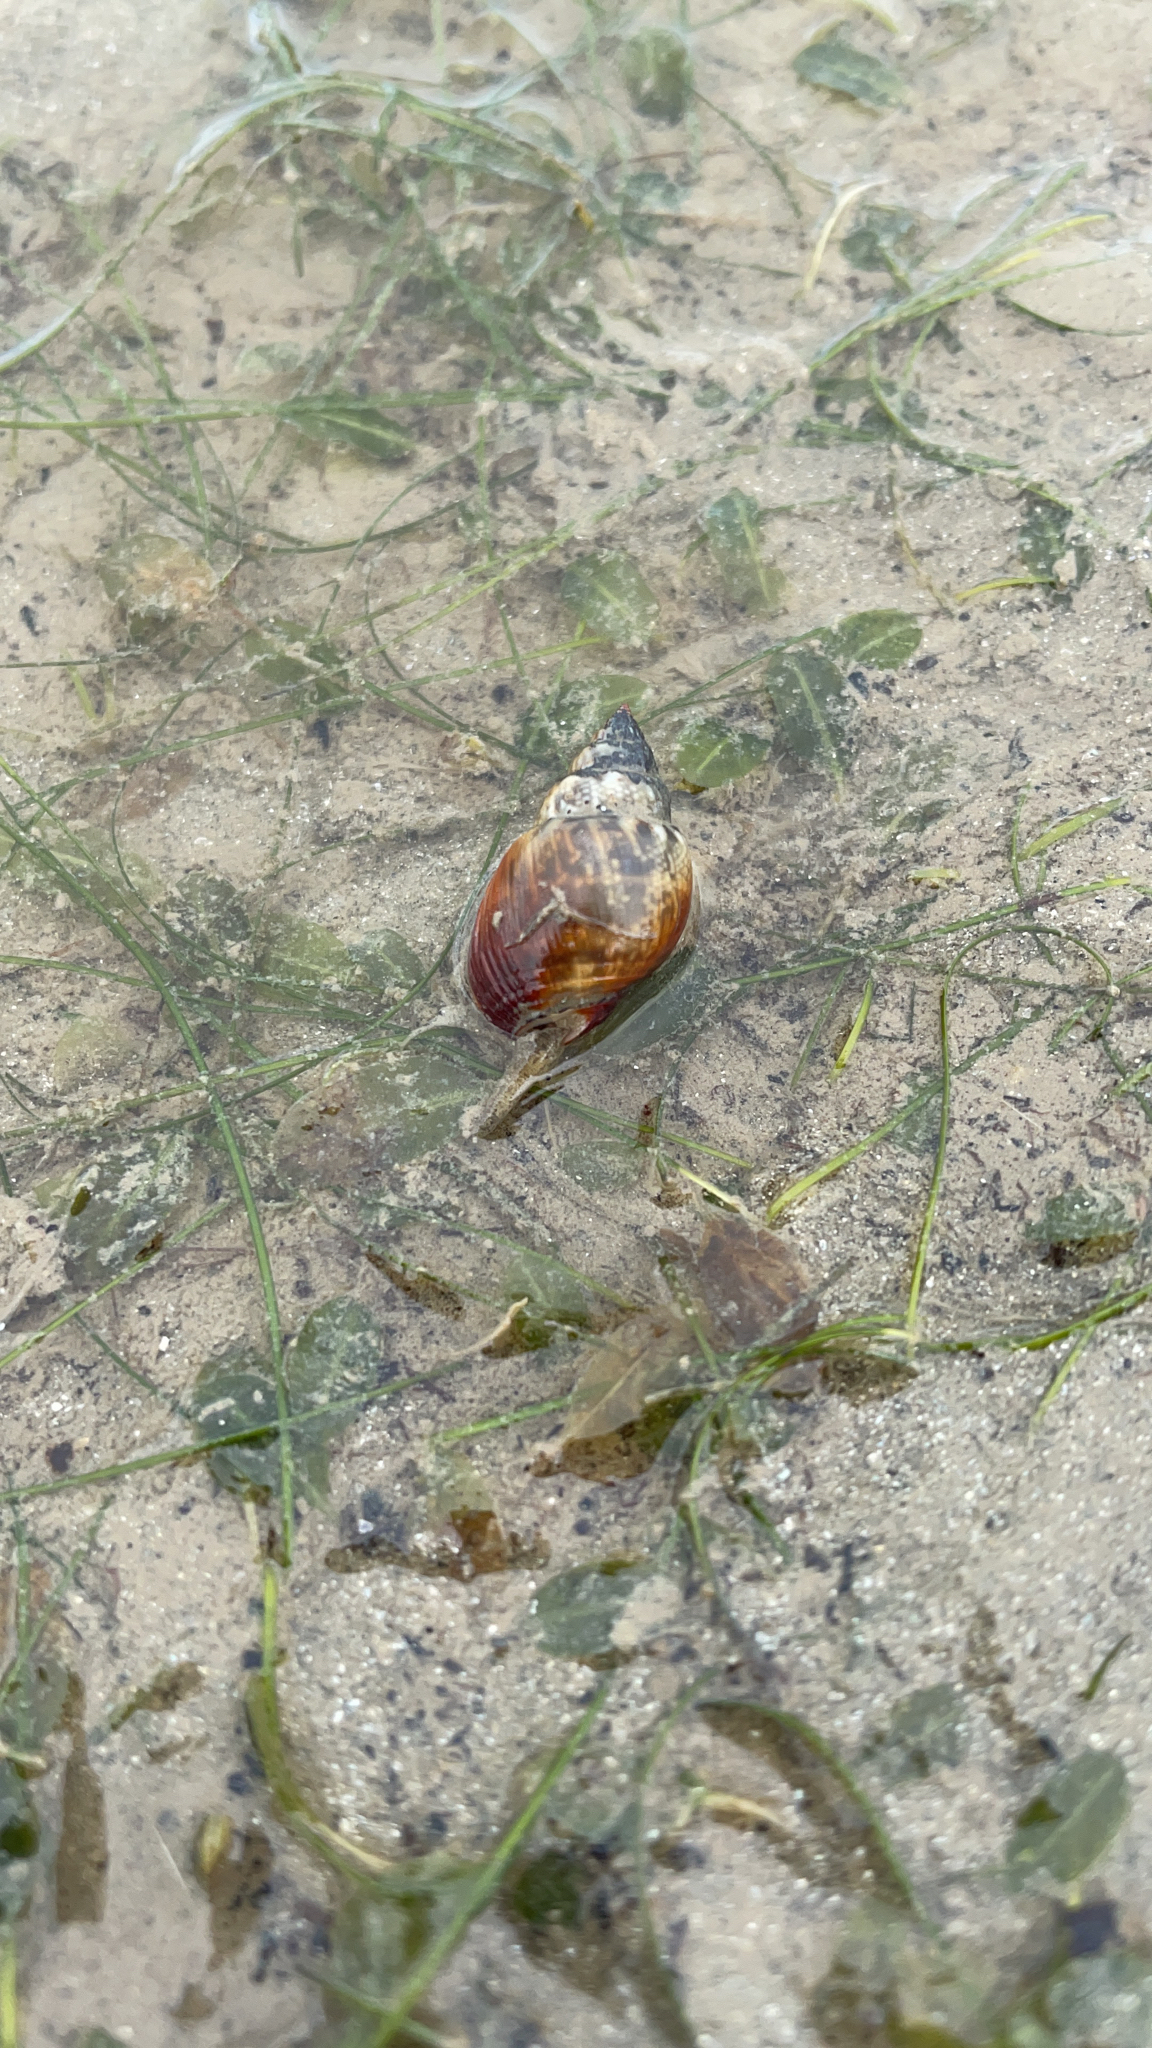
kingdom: Animalia
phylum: Mollusca
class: Gastropoda
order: Neogastropoda
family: Nassariidae
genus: Nassarius
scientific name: Nassarius dorsatus
